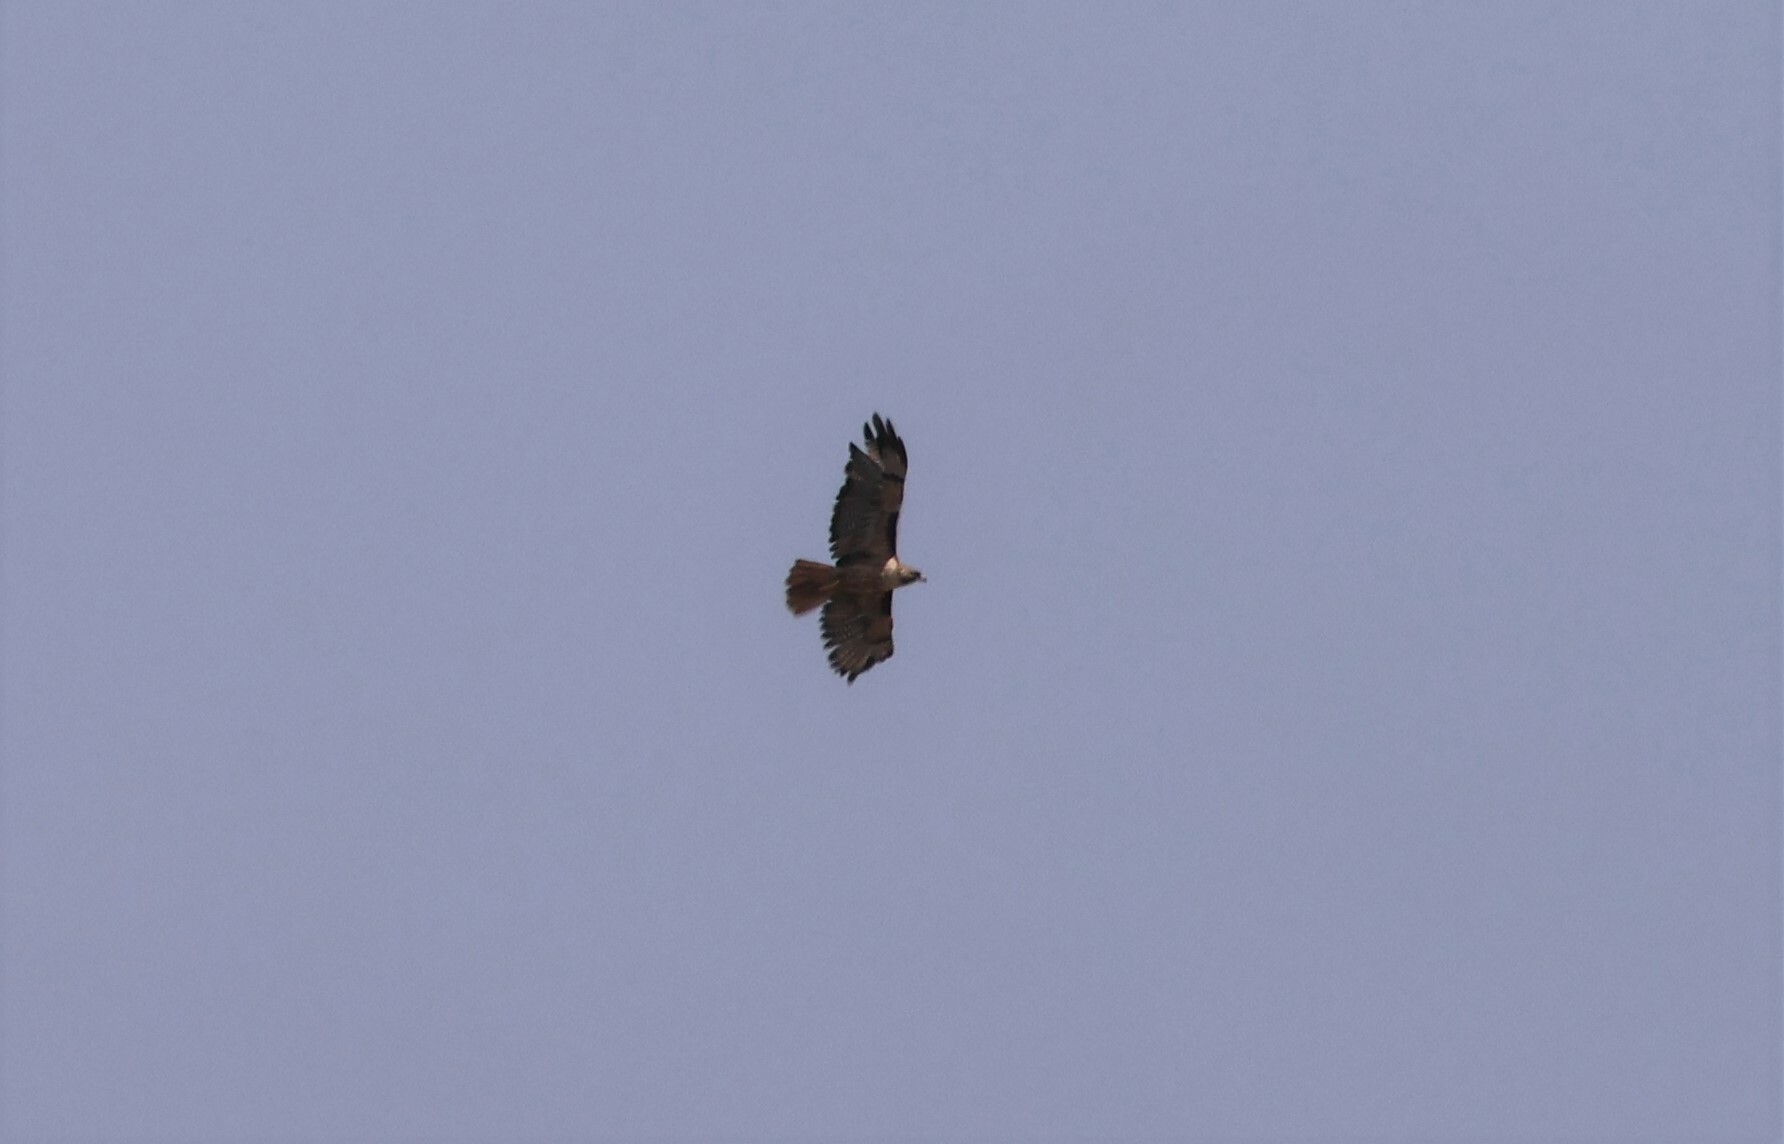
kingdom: Animalia
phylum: Chordata
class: Aves
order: Accipitriformes
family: Accipitridae
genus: Buteo
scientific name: Buteo jamaicensis
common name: Red-tailed hawk
